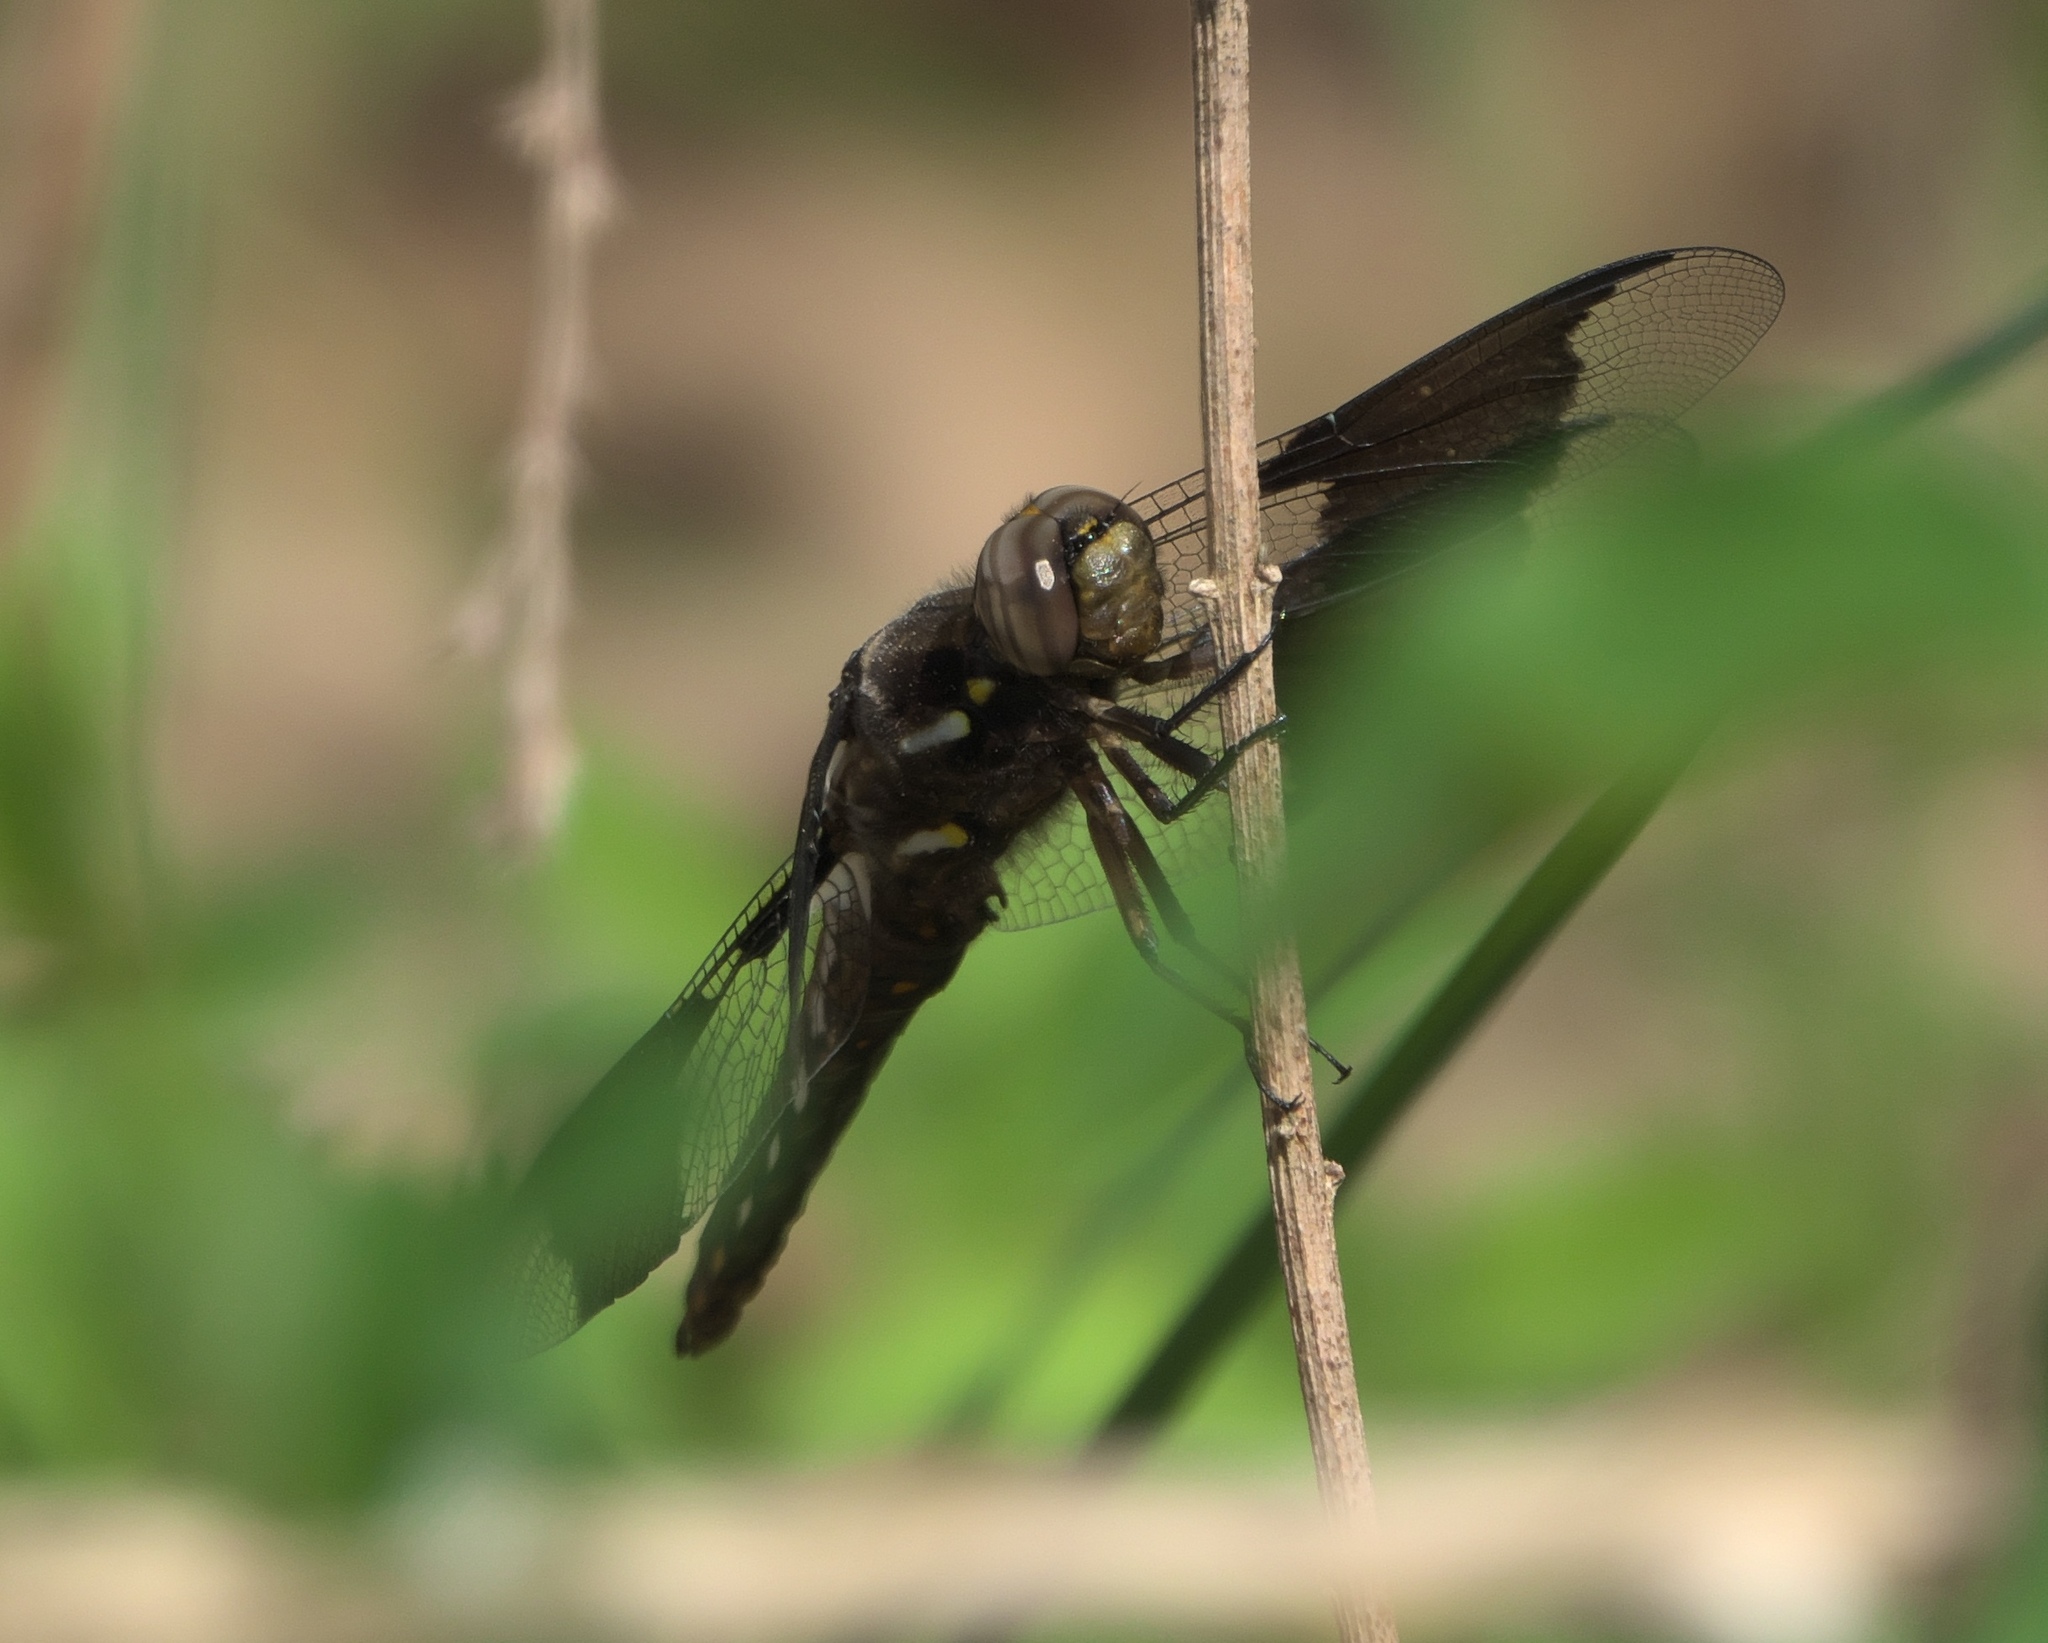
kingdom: Animalia
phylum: Arthropoda
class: Insecta
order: Odonata
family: Libellulidae
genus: Plathemis
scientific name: Plathemis lydia
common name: Common whitetail
